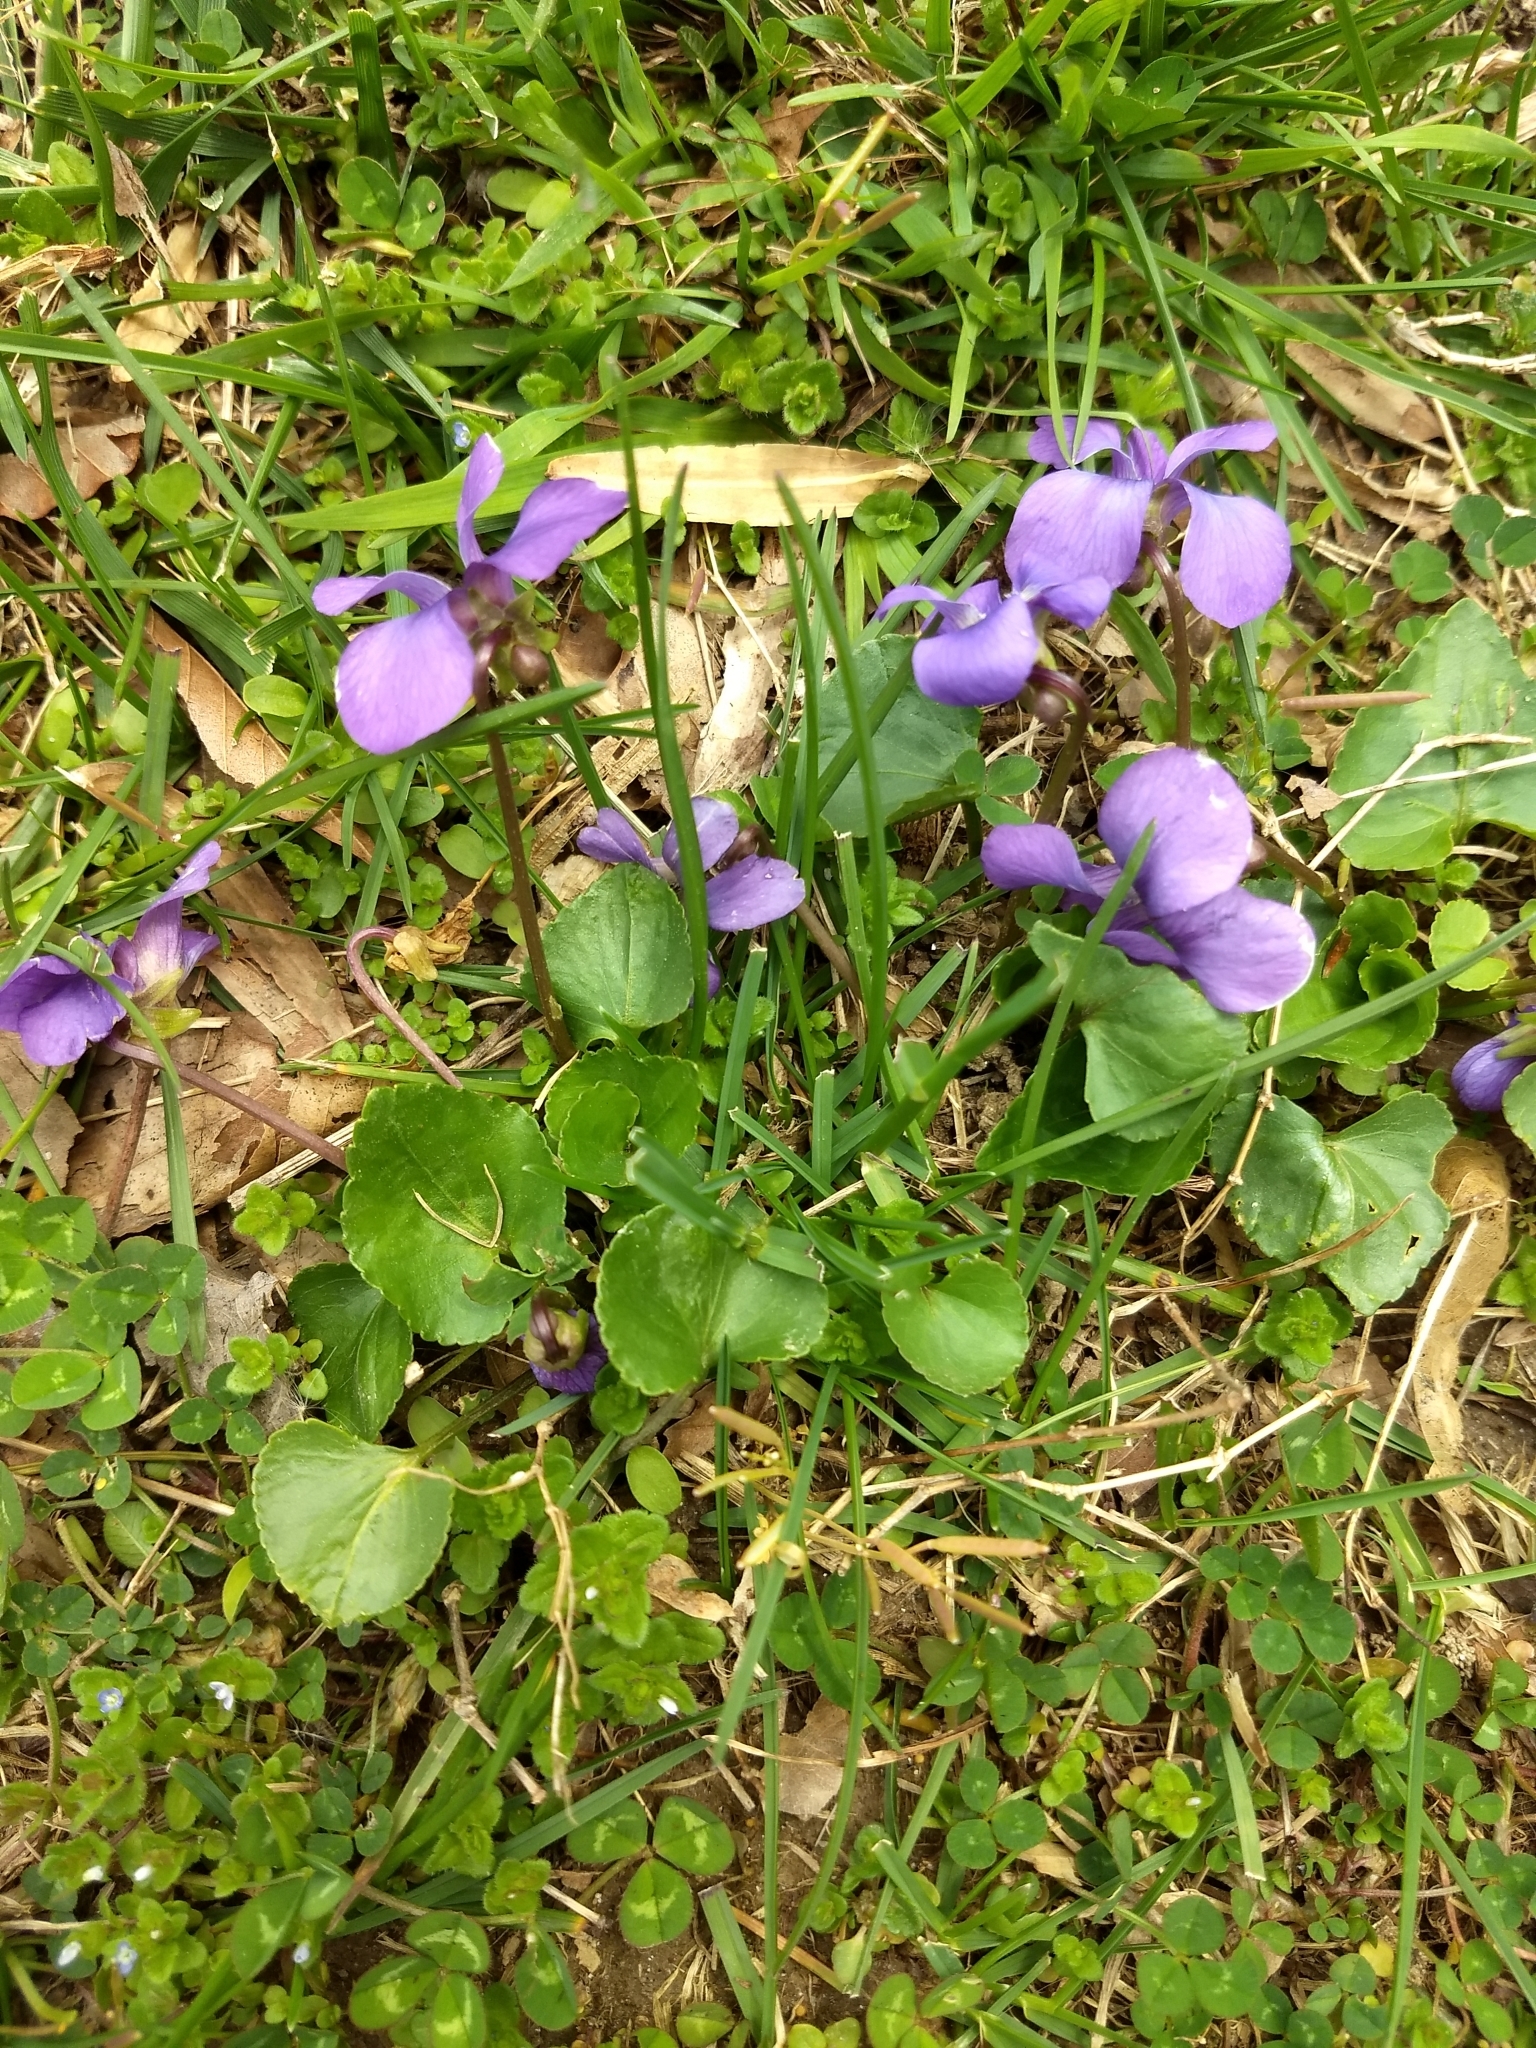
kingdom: Plantae
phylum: Tracheophyta
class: Magnoliopsida
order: Malpighiales
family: Violaceae
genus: Viola
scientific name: Viola sororia
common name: Dooryard violet
